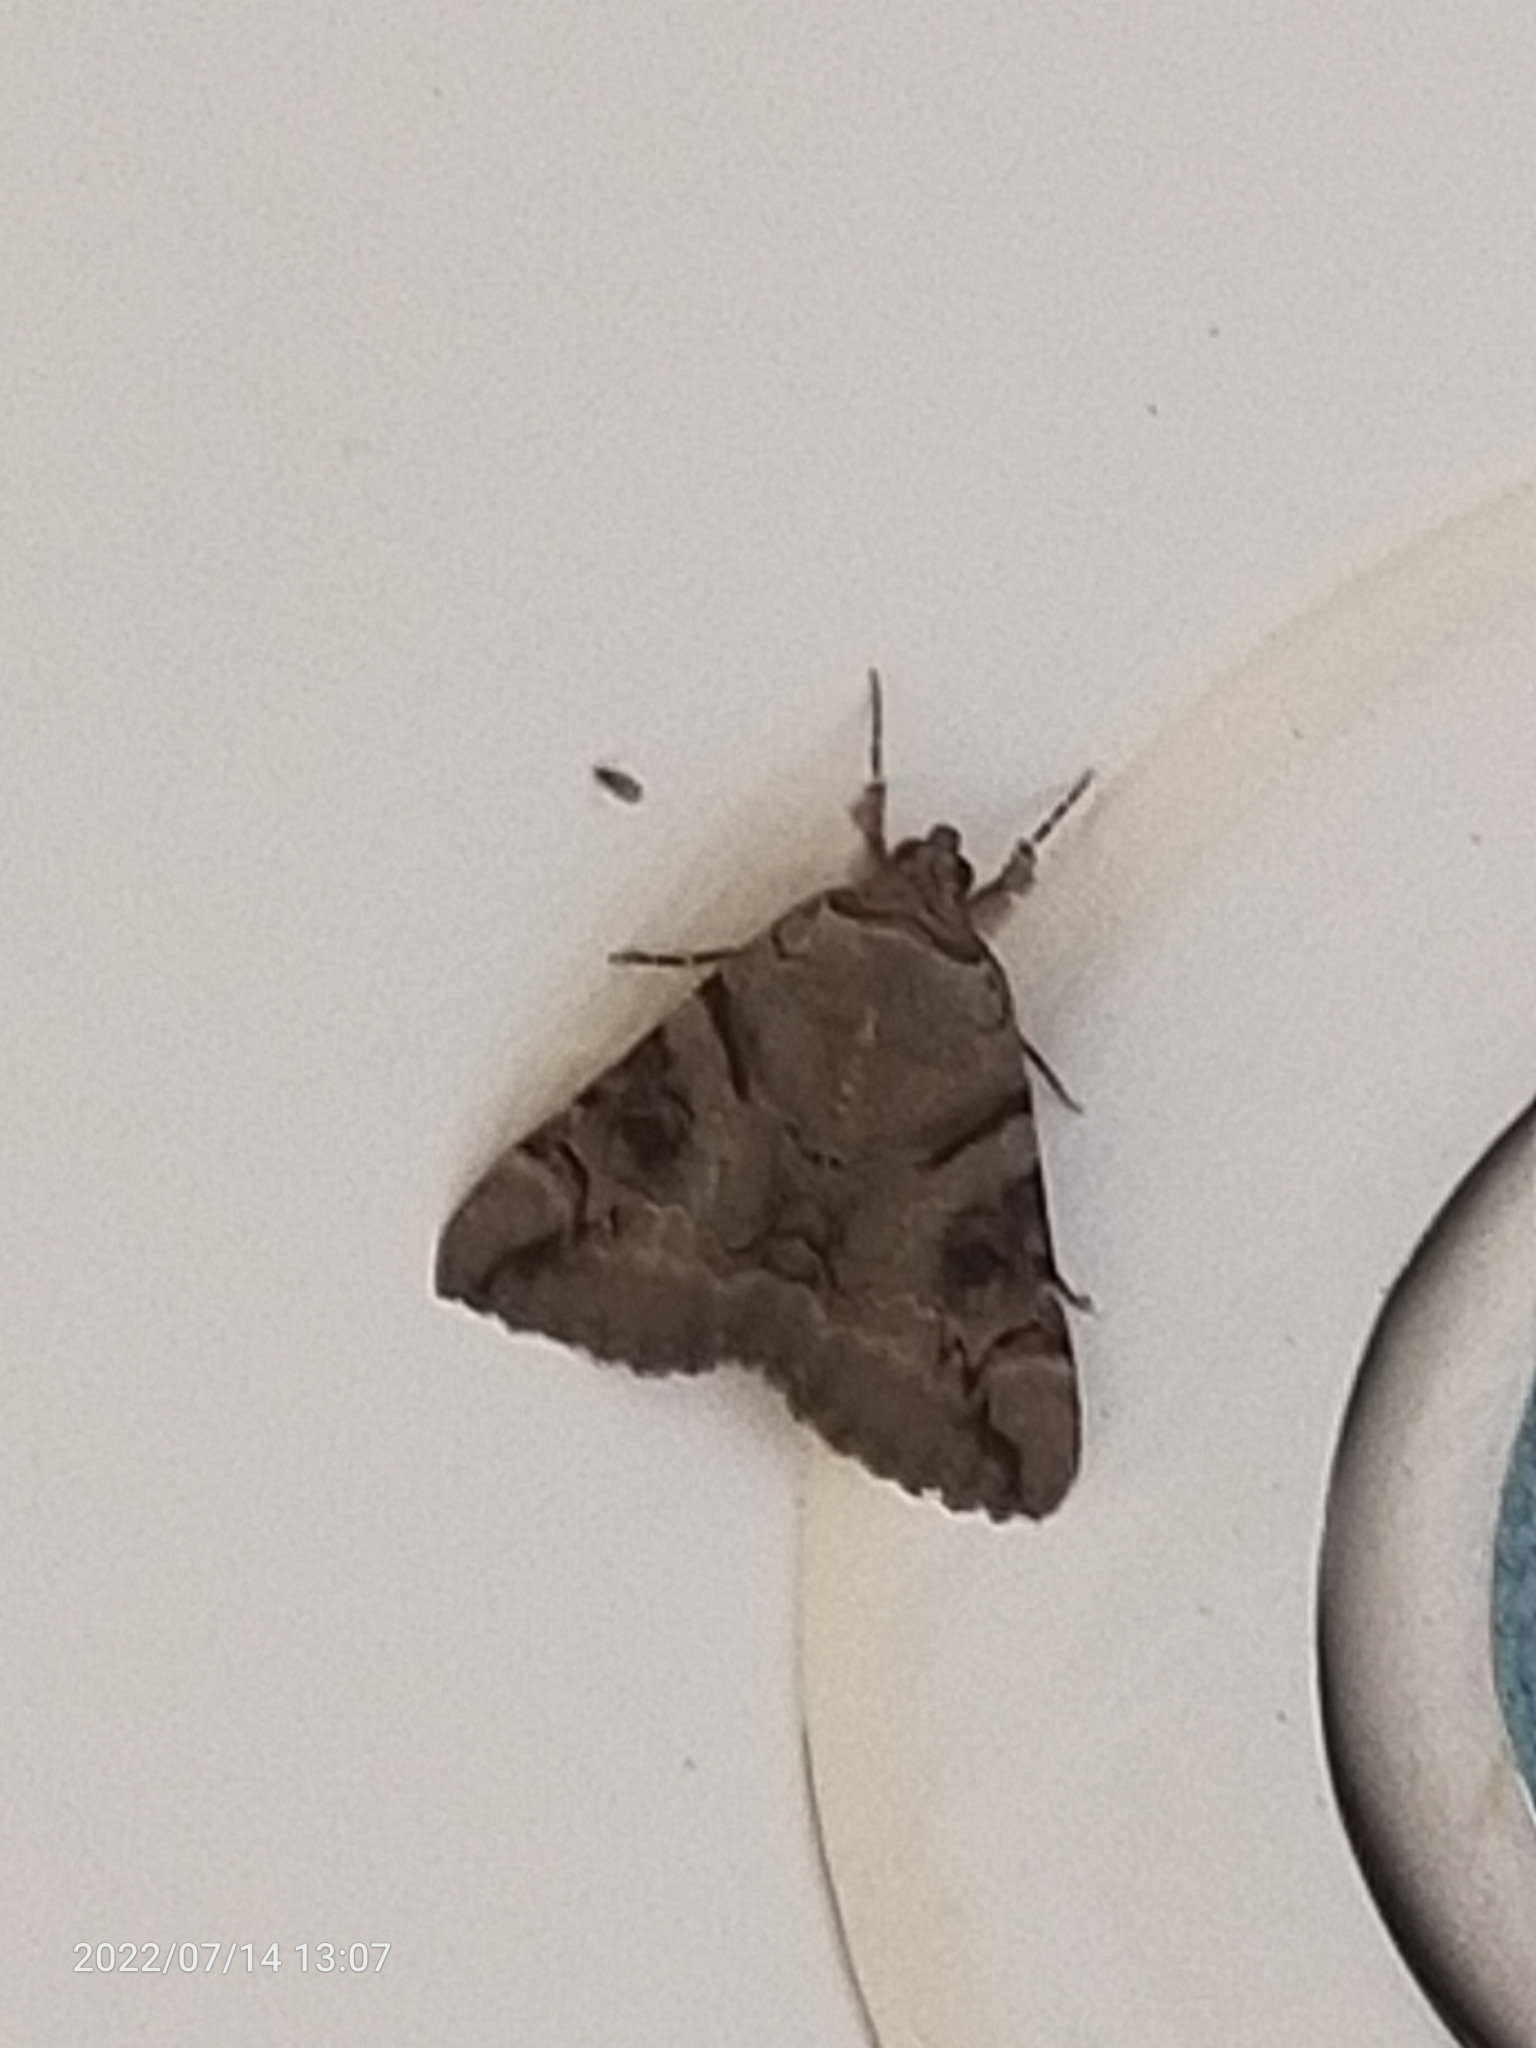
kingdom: Animalia
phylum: Arthropoda
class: Insecta
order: Lepidoptera
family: Erebidae
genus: Catocala
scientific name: Catocala hymenaea
